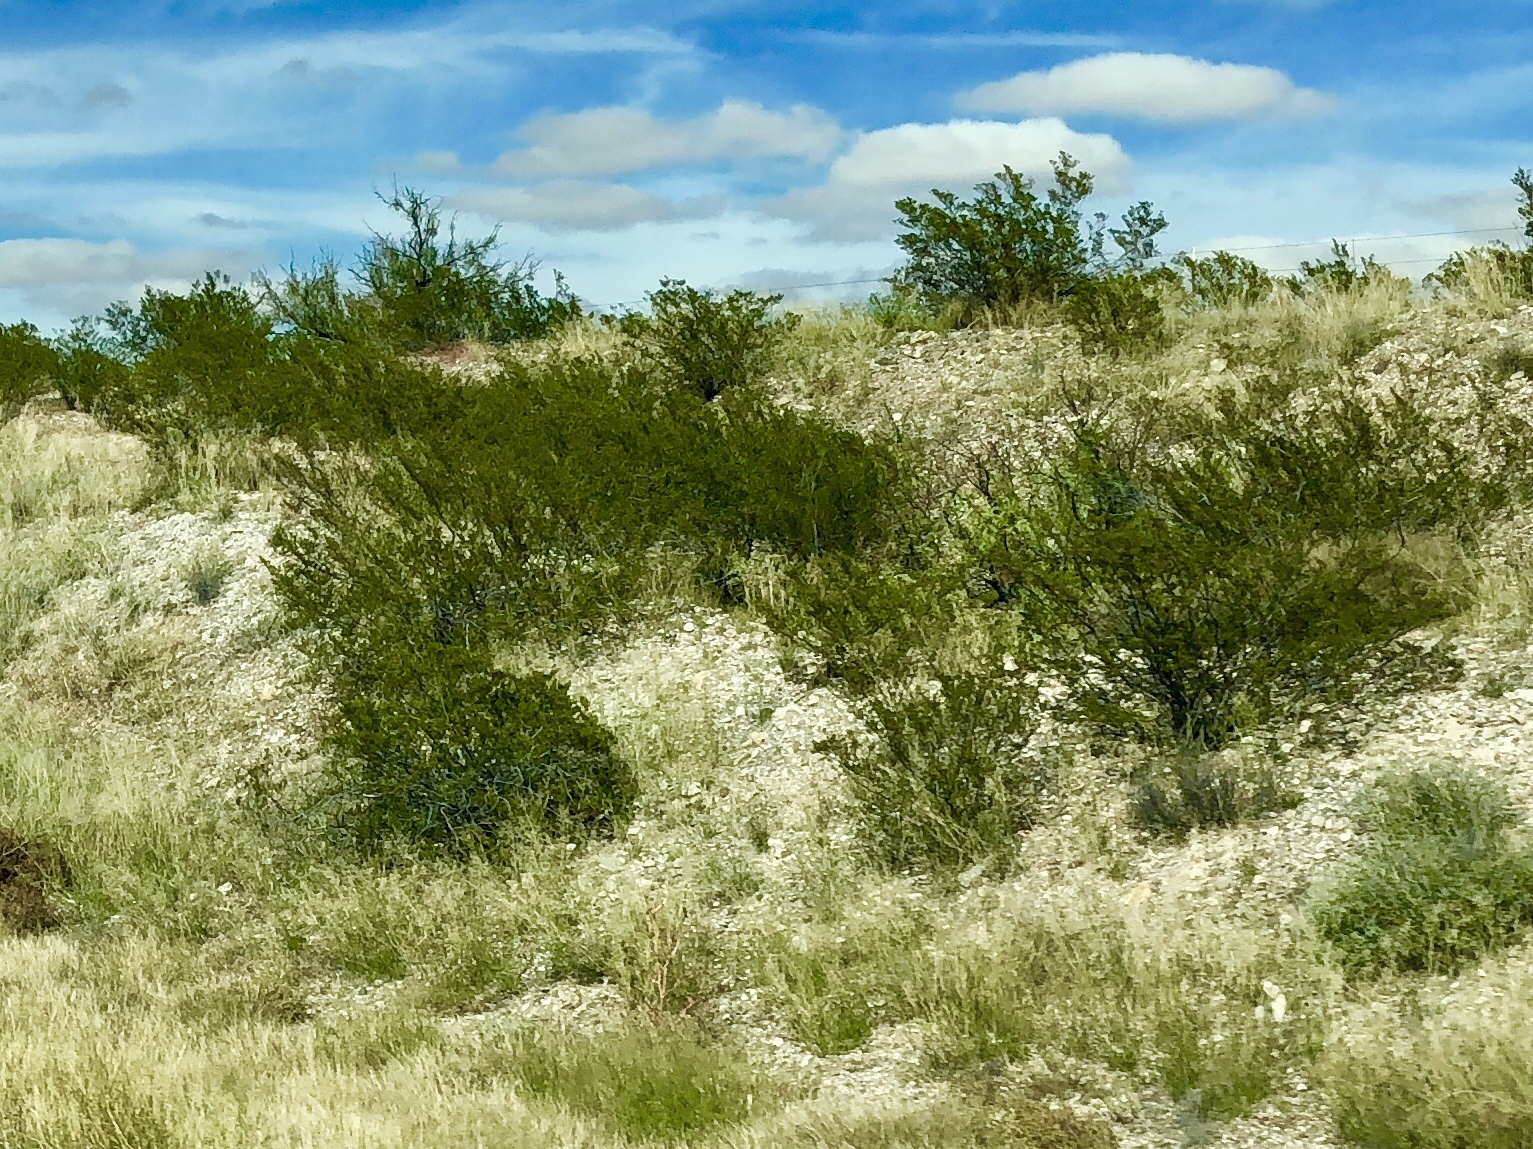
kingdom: Plantae
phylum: Tracheophyta
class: Magnoliopsida
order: Zygophyllales
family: Zygophyllaceae
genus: Larrea
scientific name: Larrea tridentata
